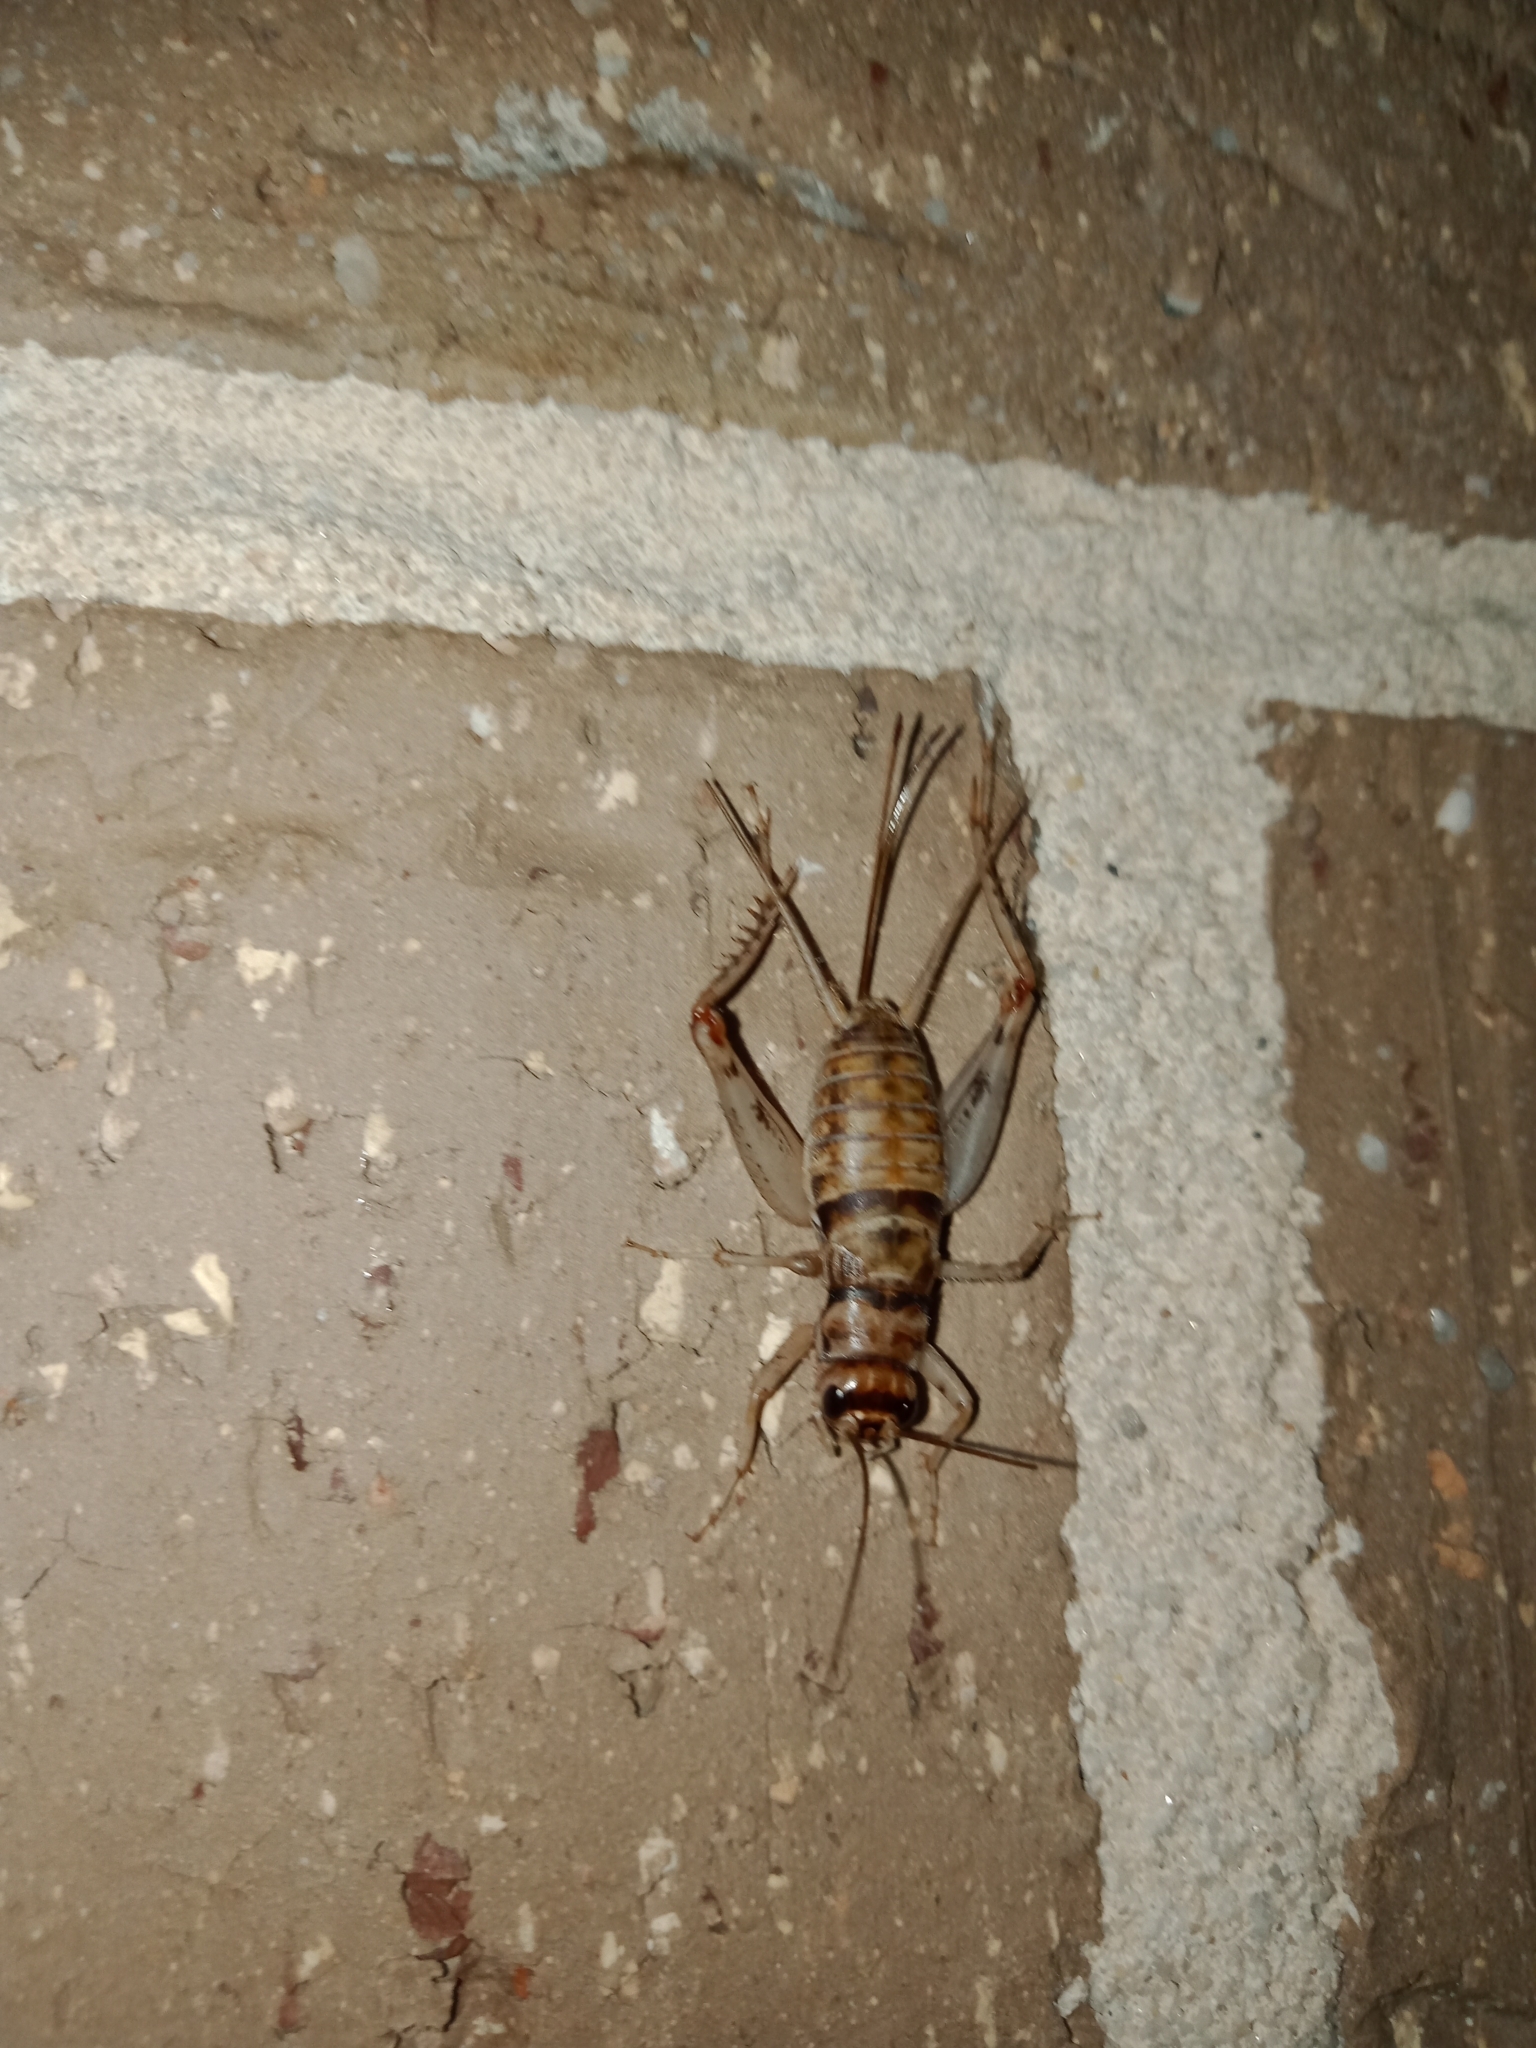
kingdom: Animalia
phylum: Arthropoda
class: Insecta
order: Orthoptera
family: Gryllidae
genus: Gryllodes
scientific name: Gryllodes sigillatus
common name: Tropical house cricket
